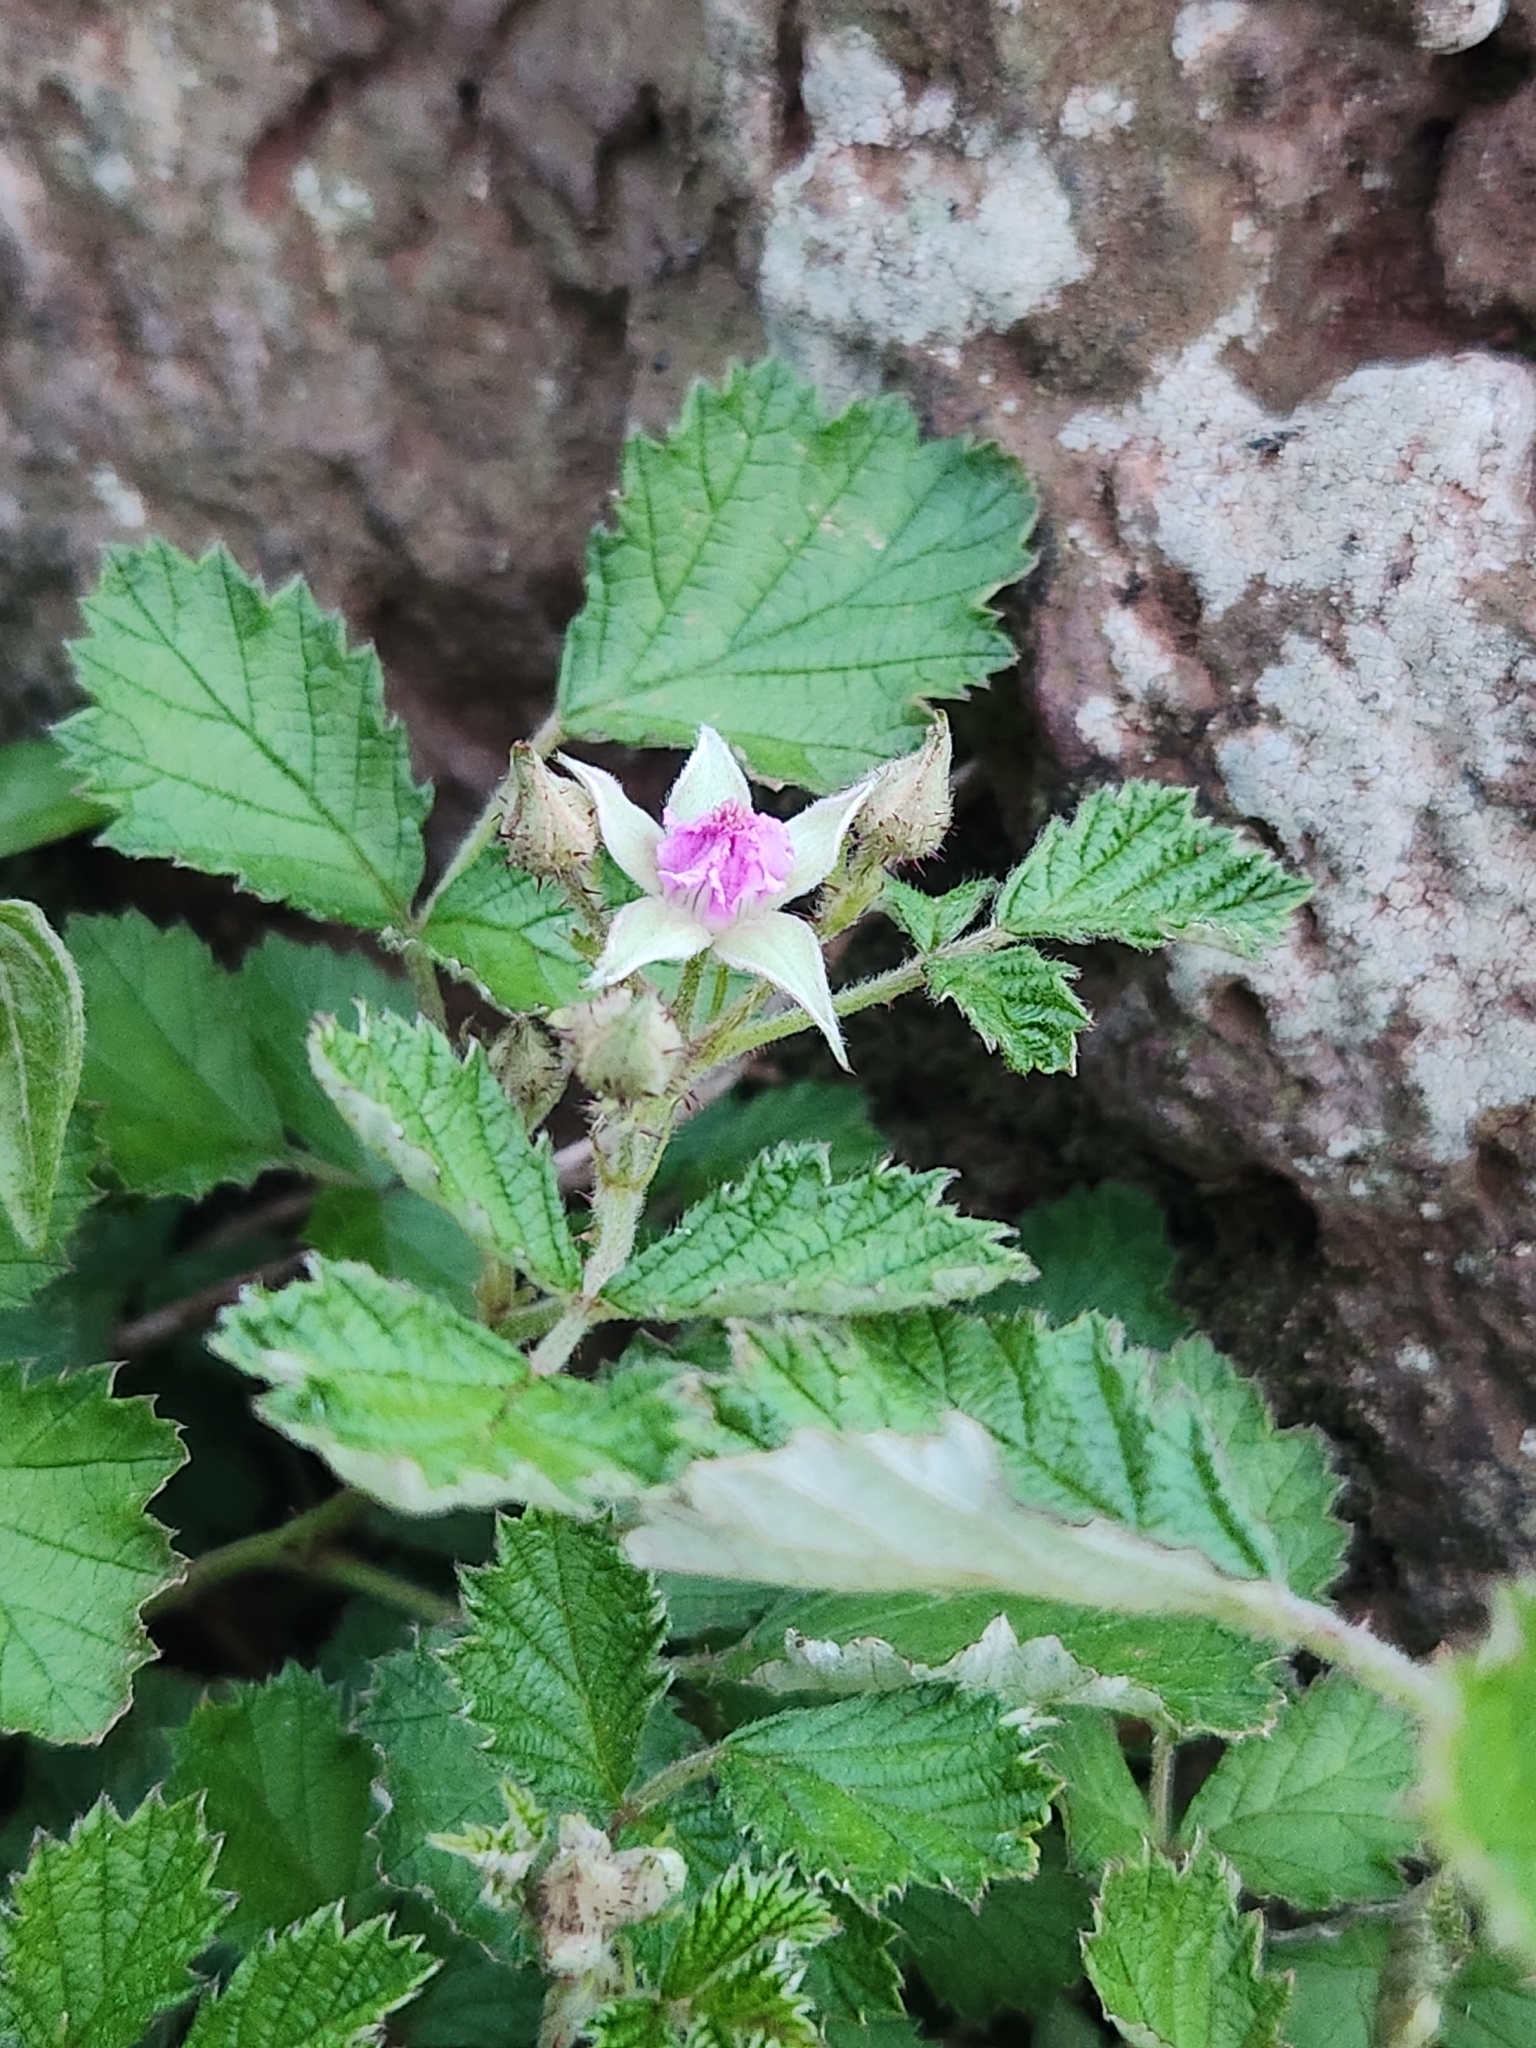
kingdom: Plantae
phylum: Tracheophyta
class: Magnoliopsida
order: Rosales
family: Cannabaceae
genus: Humulus
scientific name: Humulus scandens
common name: Japanese hop
